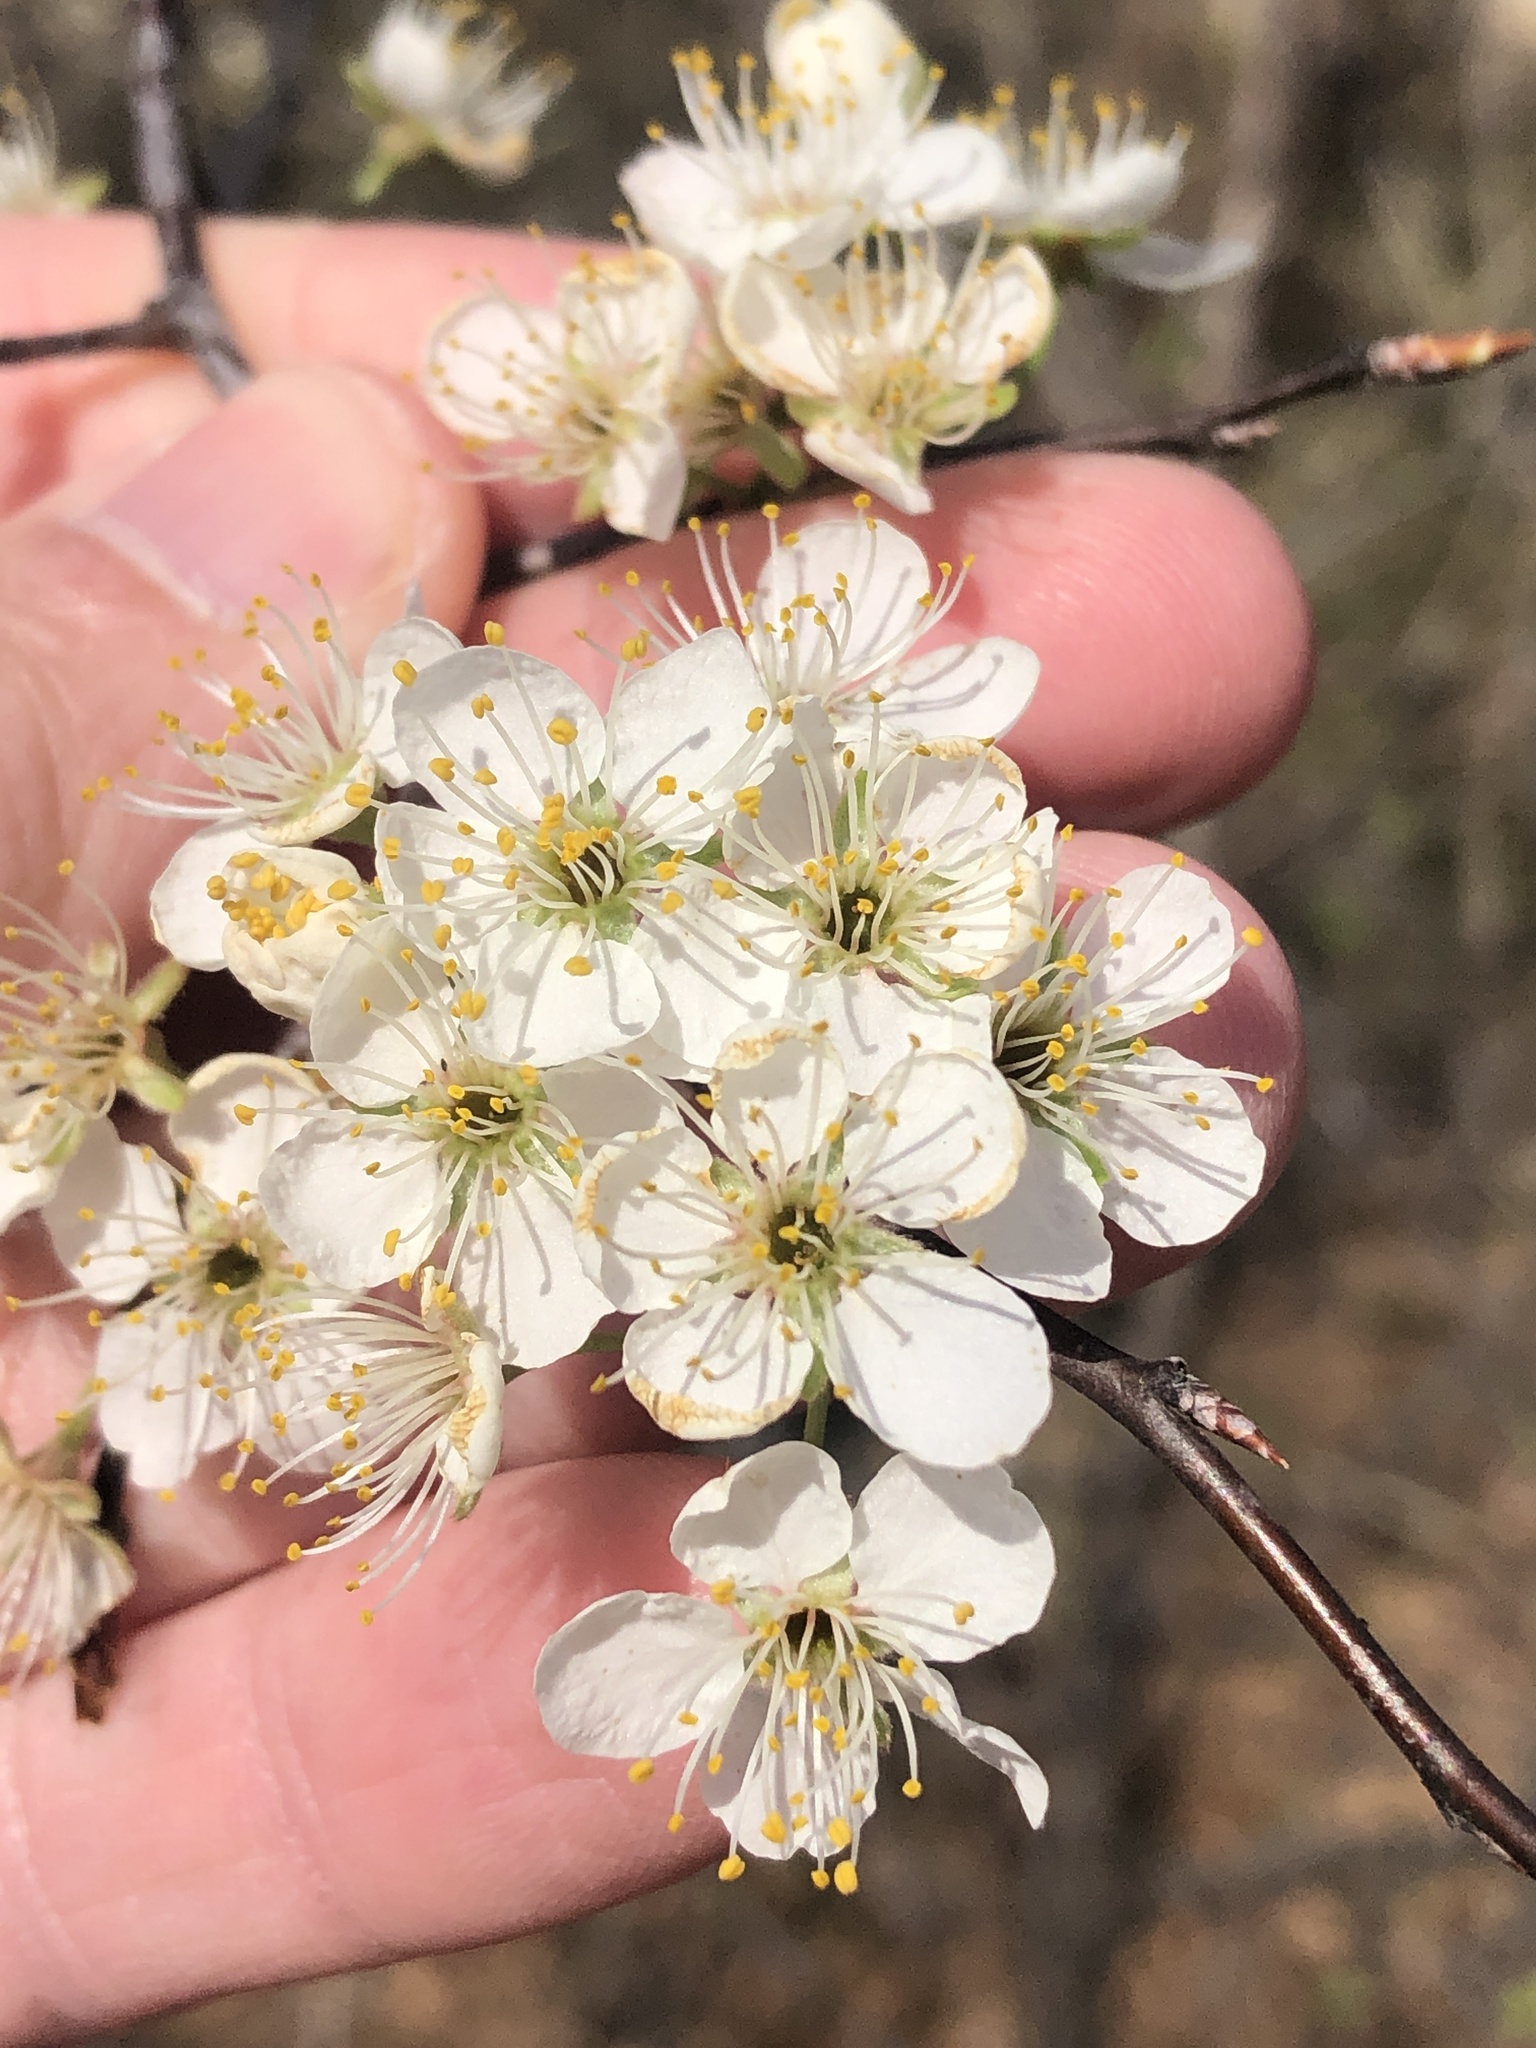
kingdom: Plantae
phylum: Tracheophyta
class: Magnoliopsida
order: Rosales
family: Rosaceae
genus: Prunus
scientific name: Prunus mexicana
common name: Mexican plum
